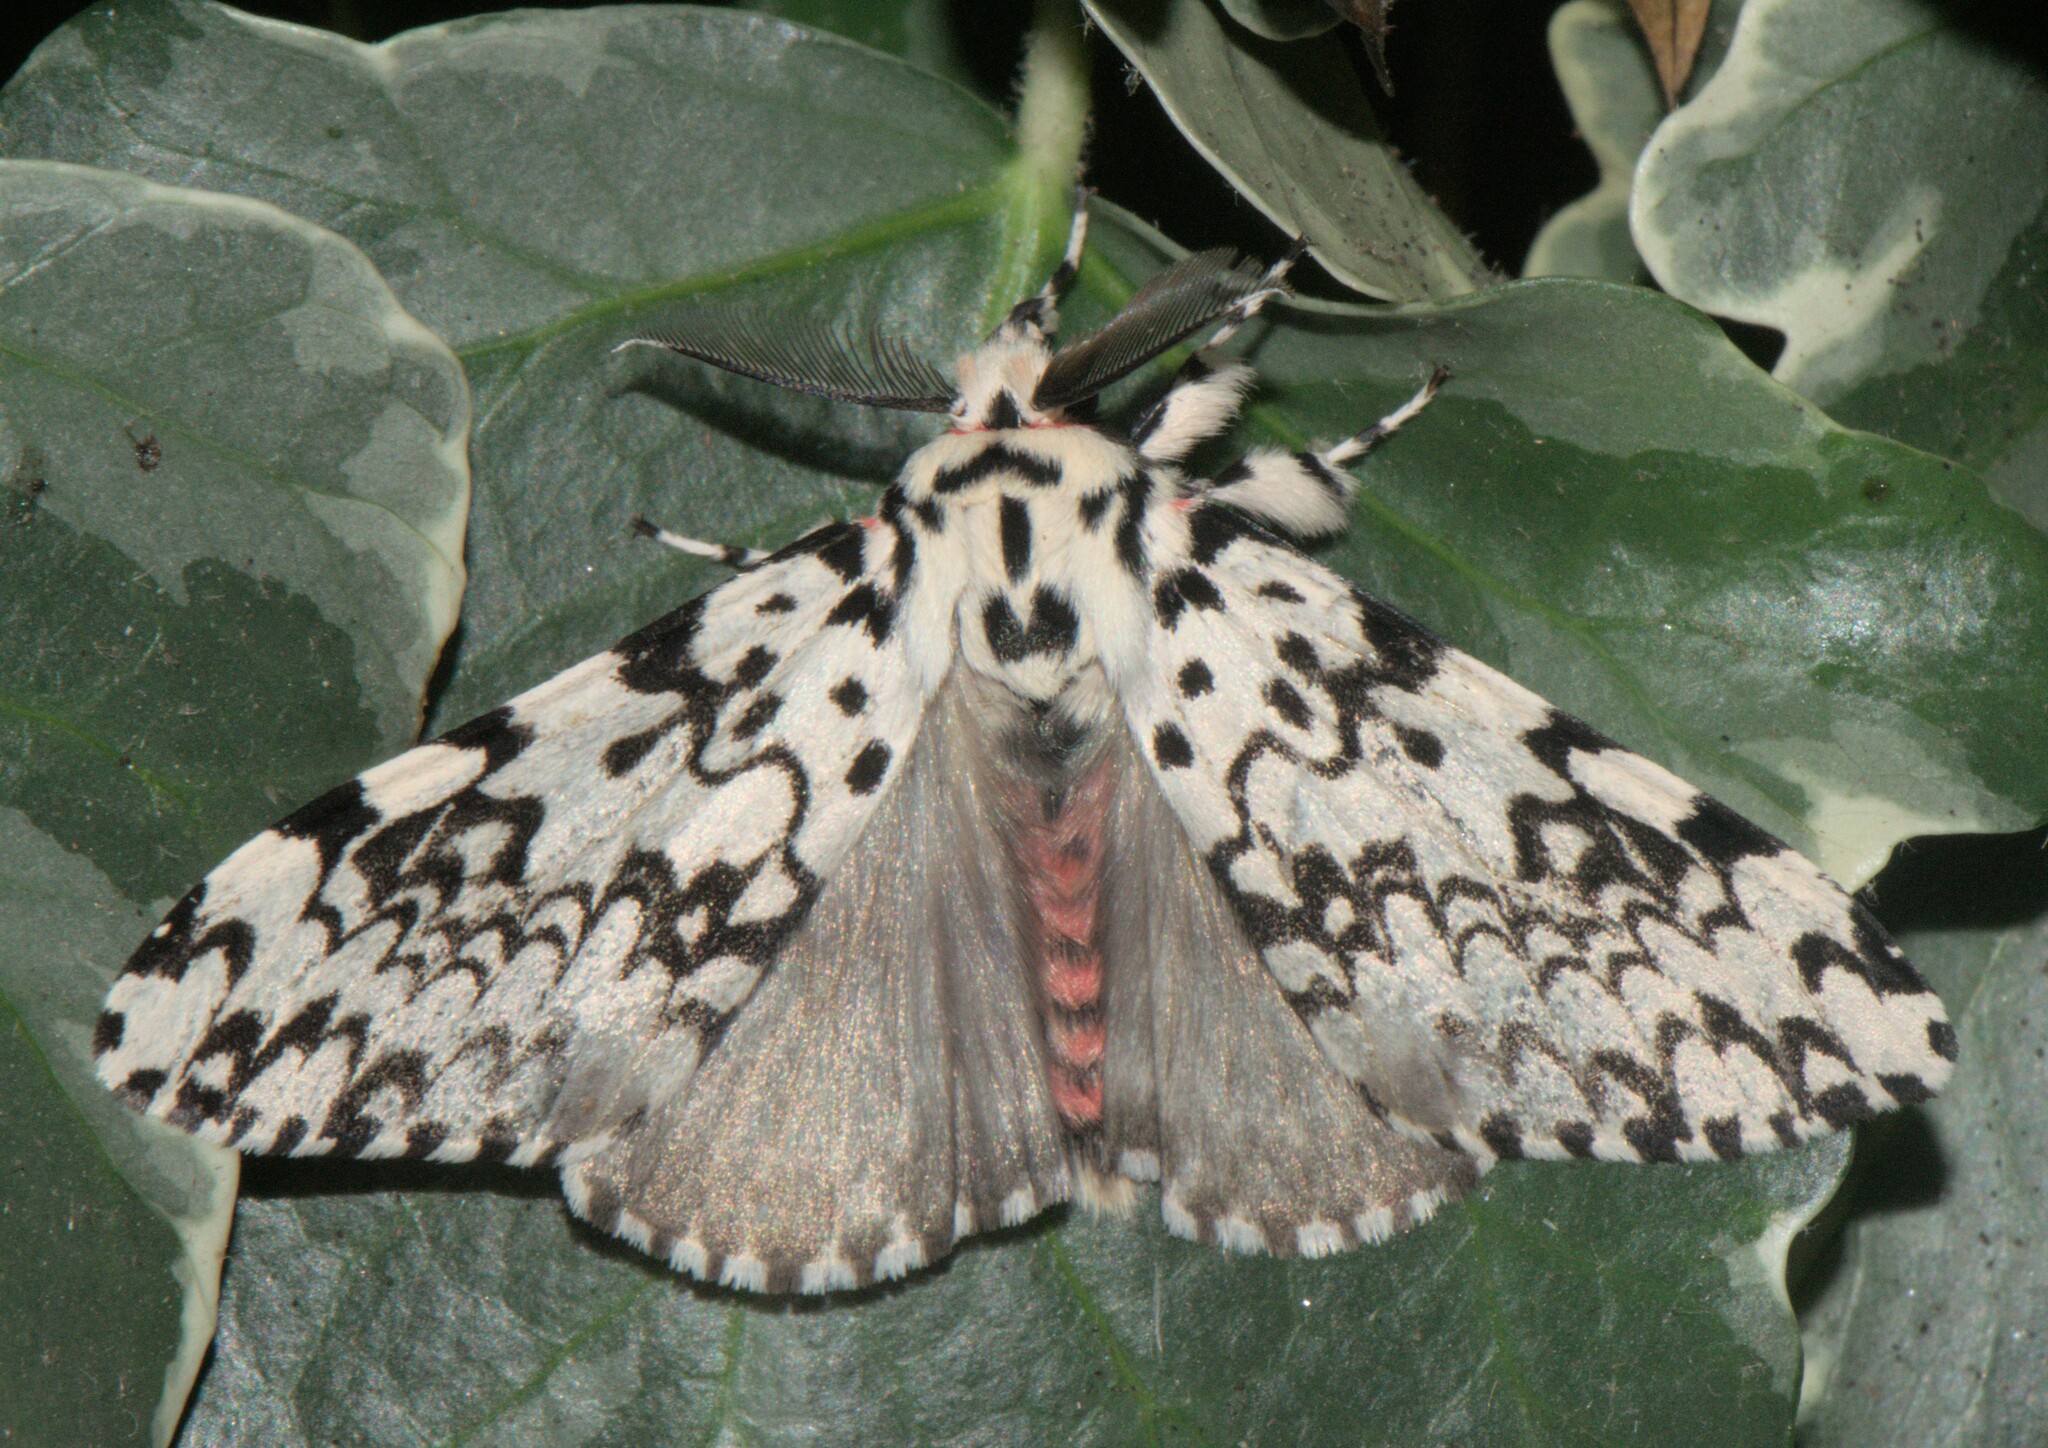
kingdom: Animalia
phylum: Arthropoda
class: Insecta
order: Lepidoptera
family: Erebidae
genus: Lymantria
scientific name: Lymantria concolor
